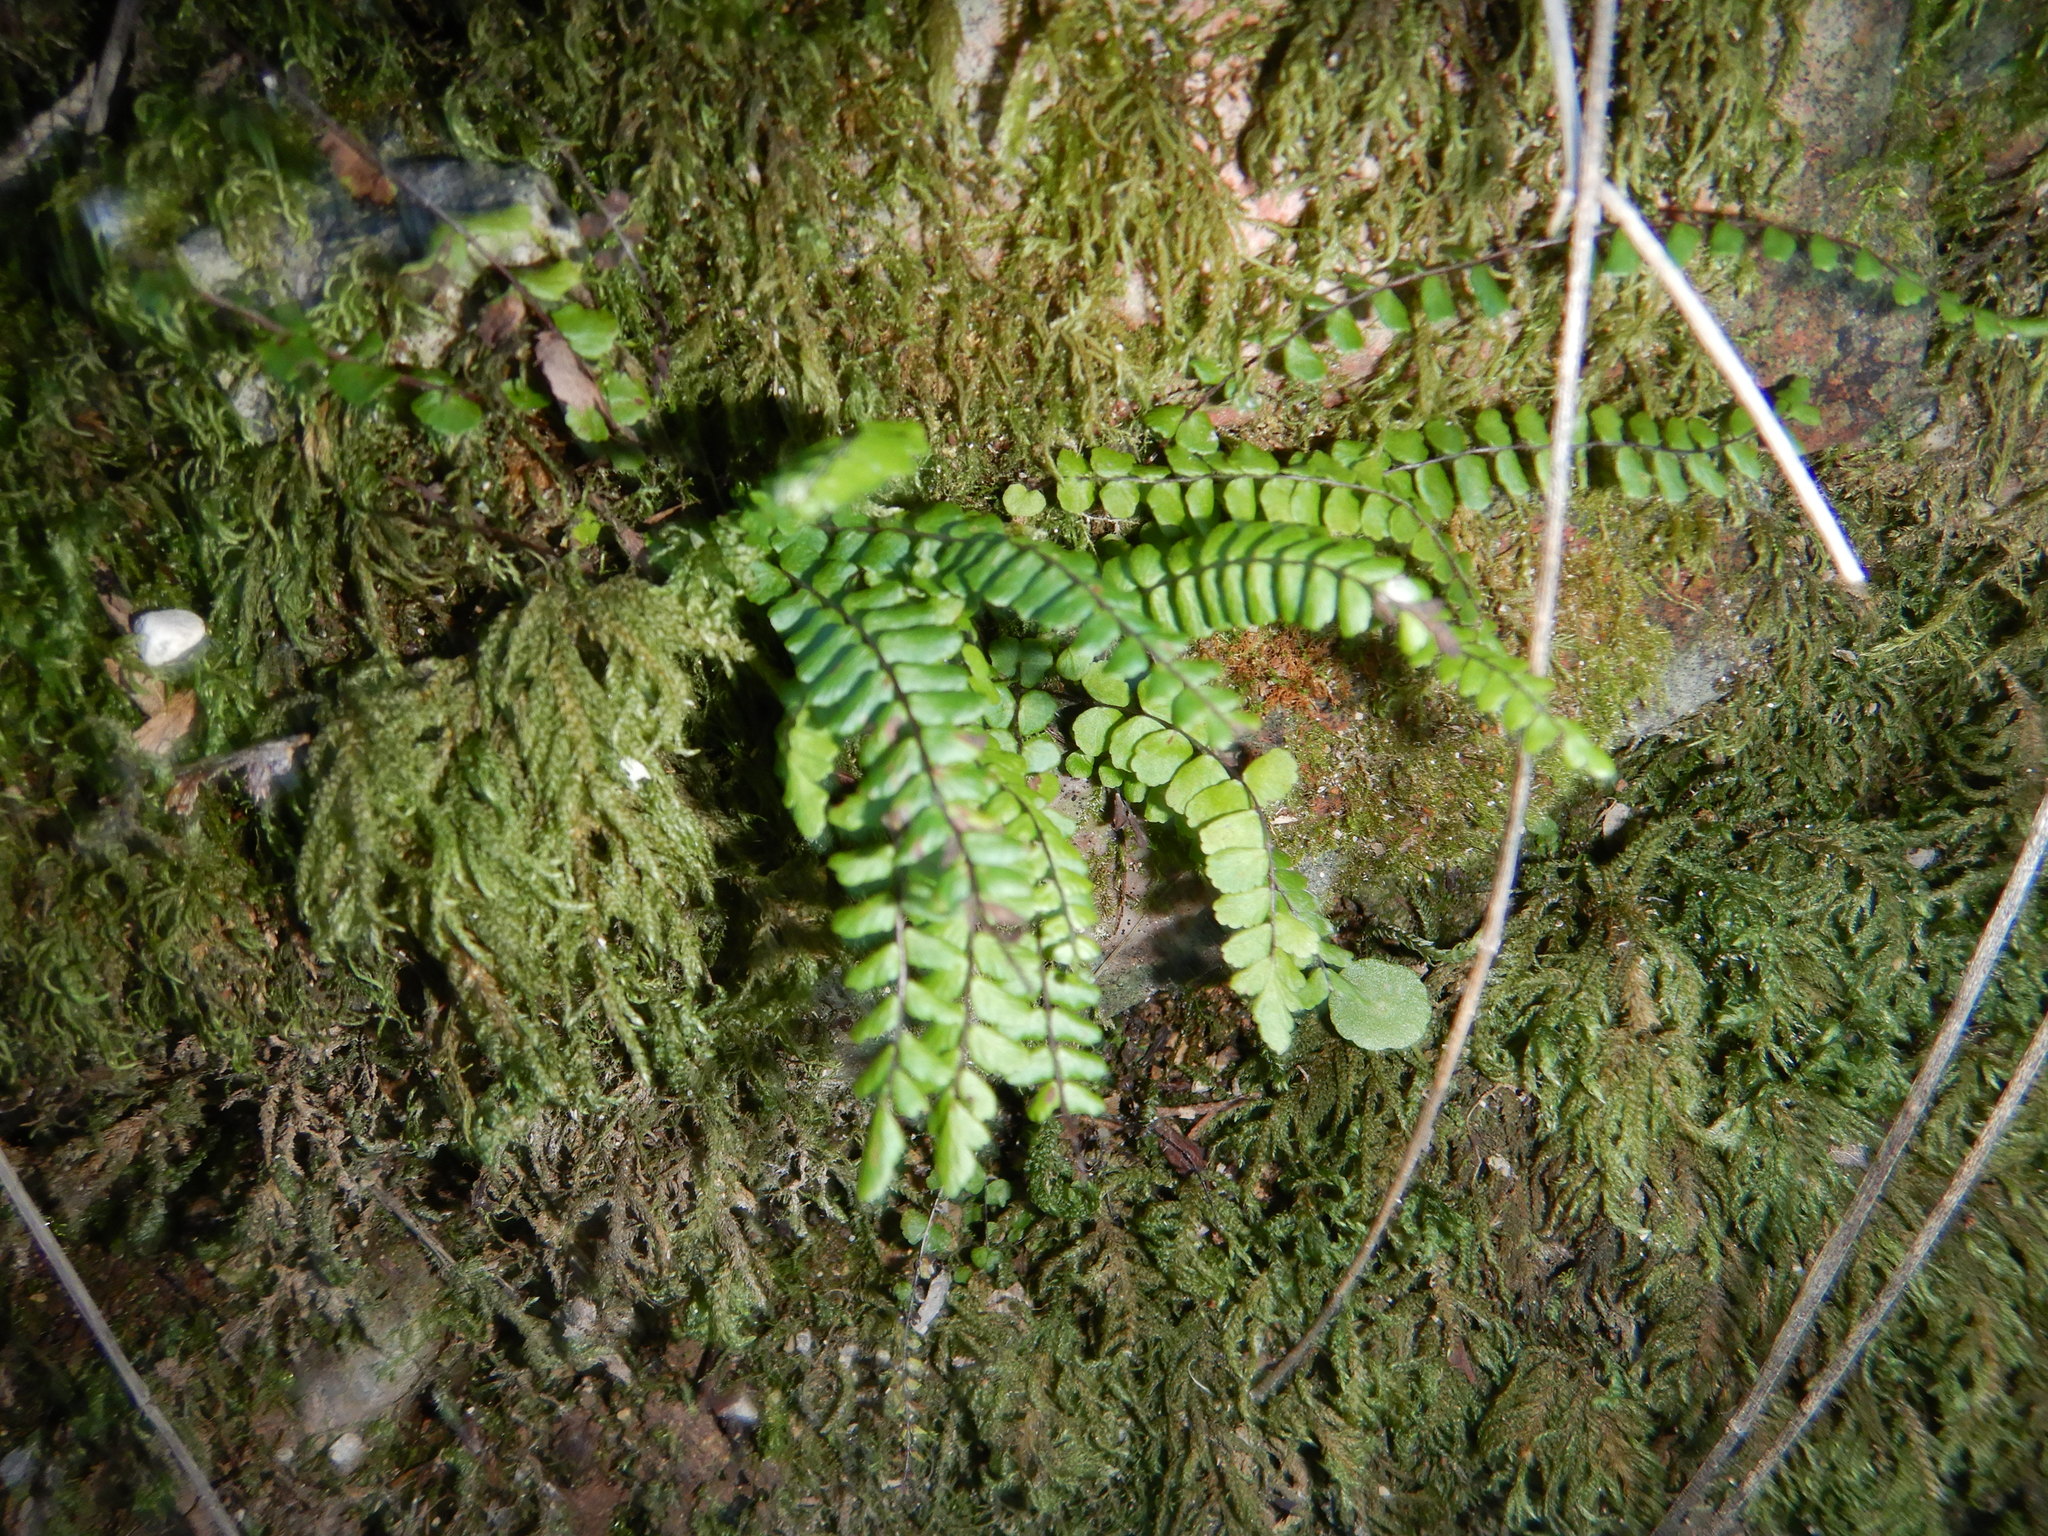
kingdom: Plantae
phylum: Tracheophyta
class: Polypodiopsida
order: Polypodiales
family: Aspleniaceae
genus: Asplenium
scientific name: Asplenium trichomanes
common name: Maidenhair spleenwort
